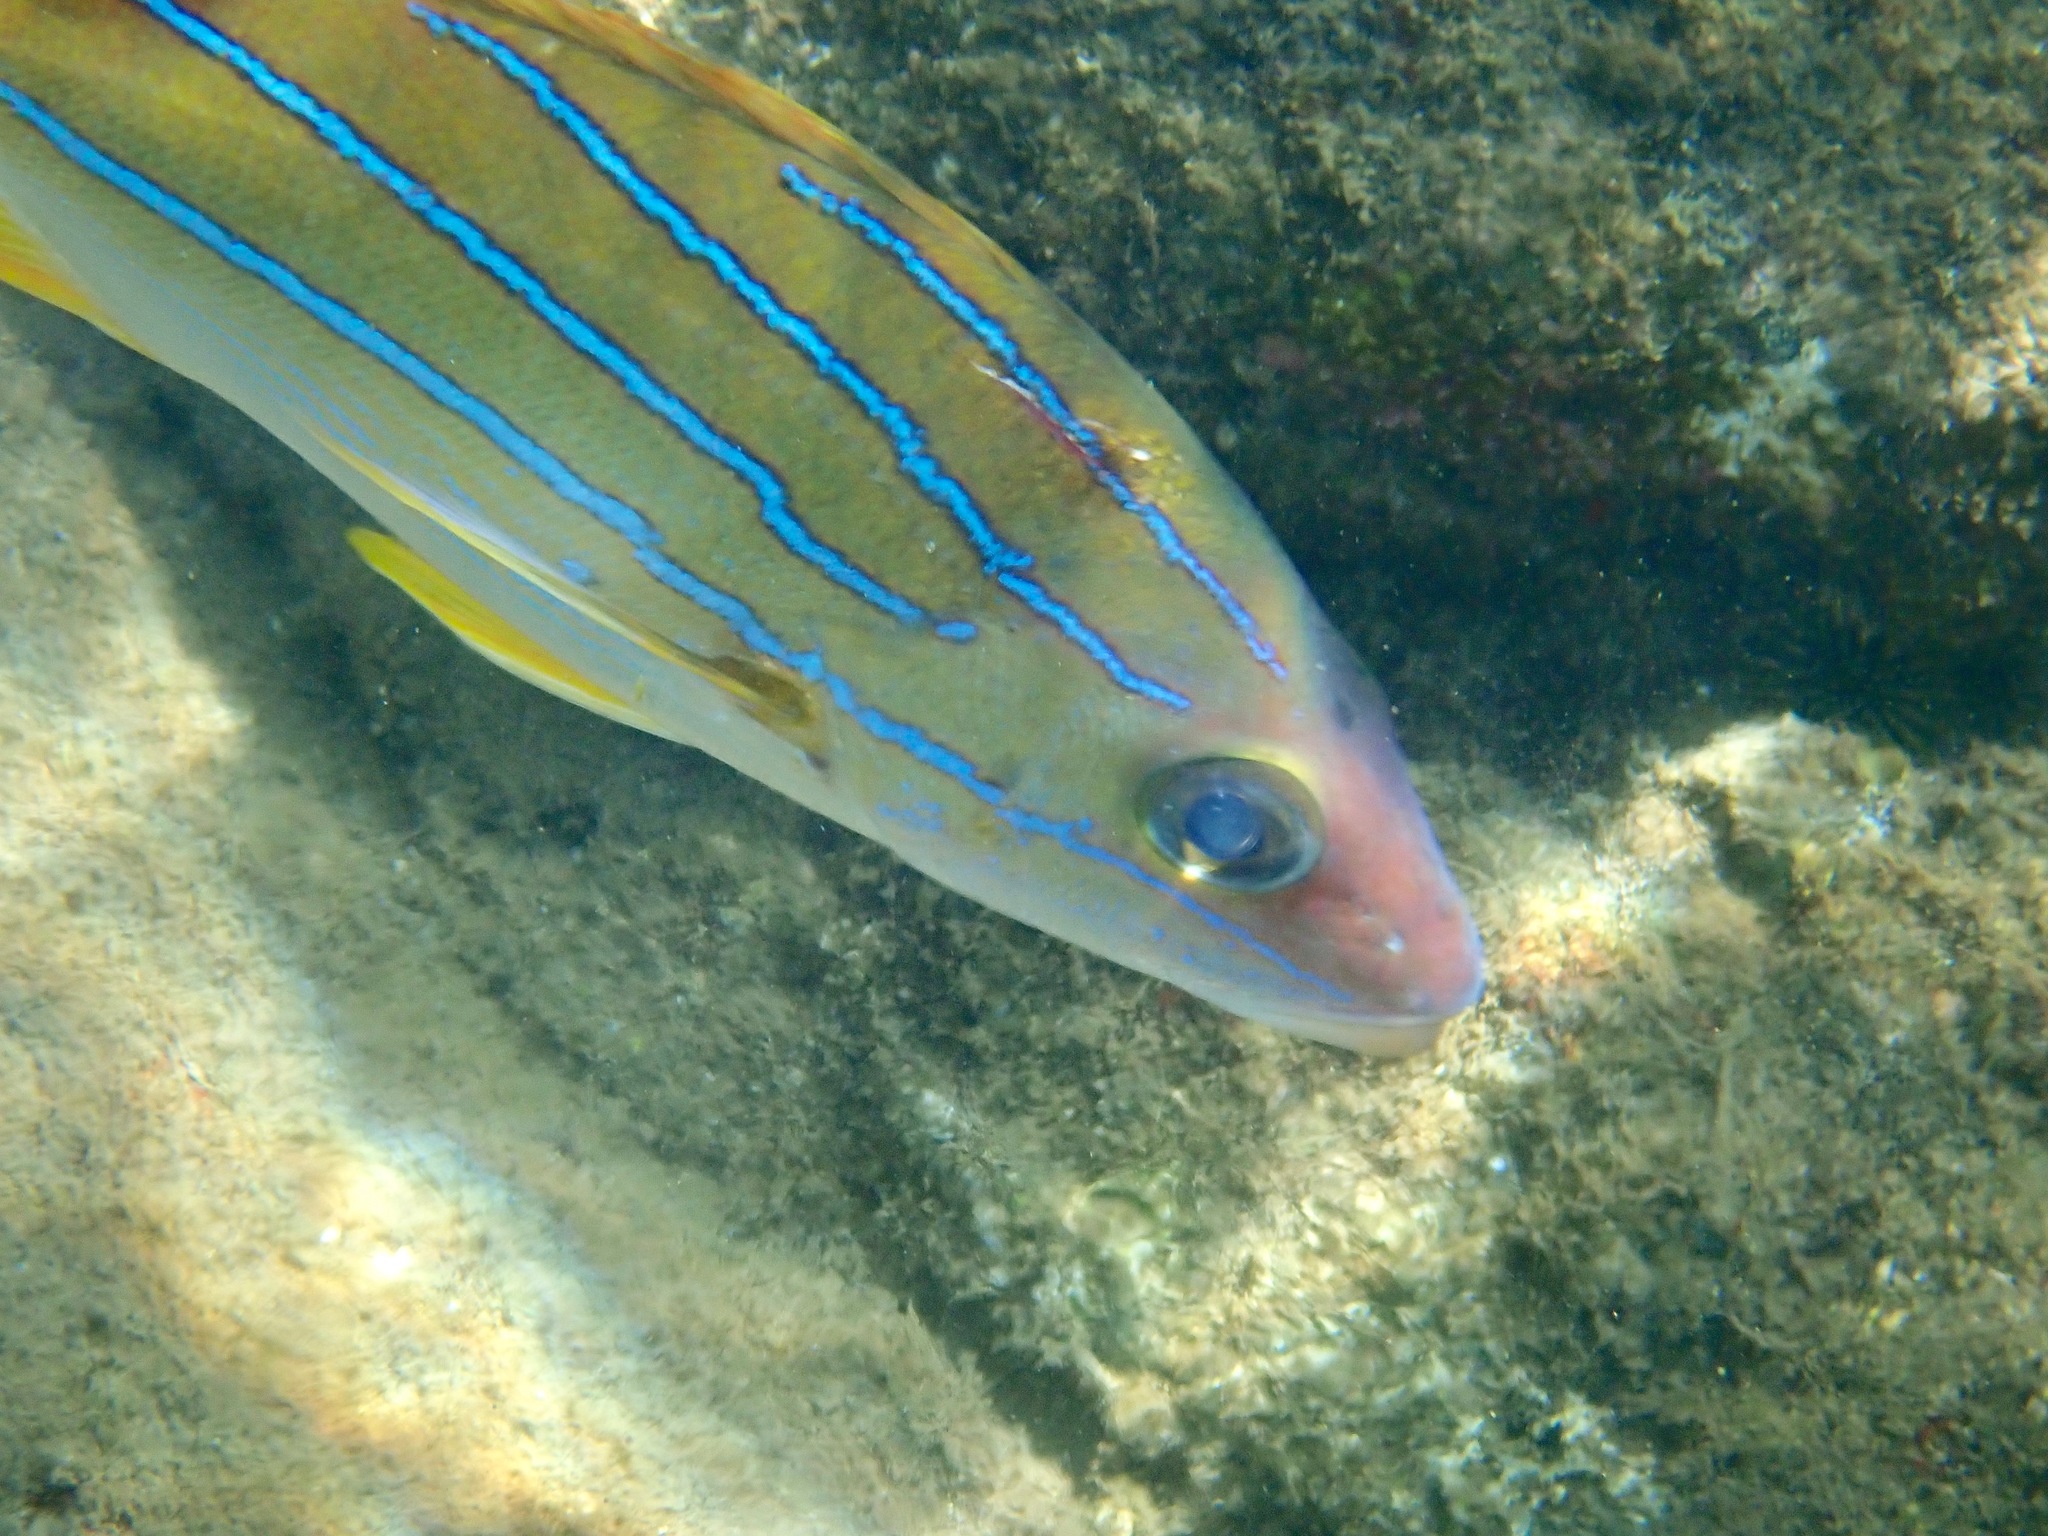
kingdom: Animalia
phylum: Chordata
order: Perciformes
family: Lutjanidae
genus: Lutjanus
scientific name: Lutjanus kasmira
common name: Common bluestripe snapper
